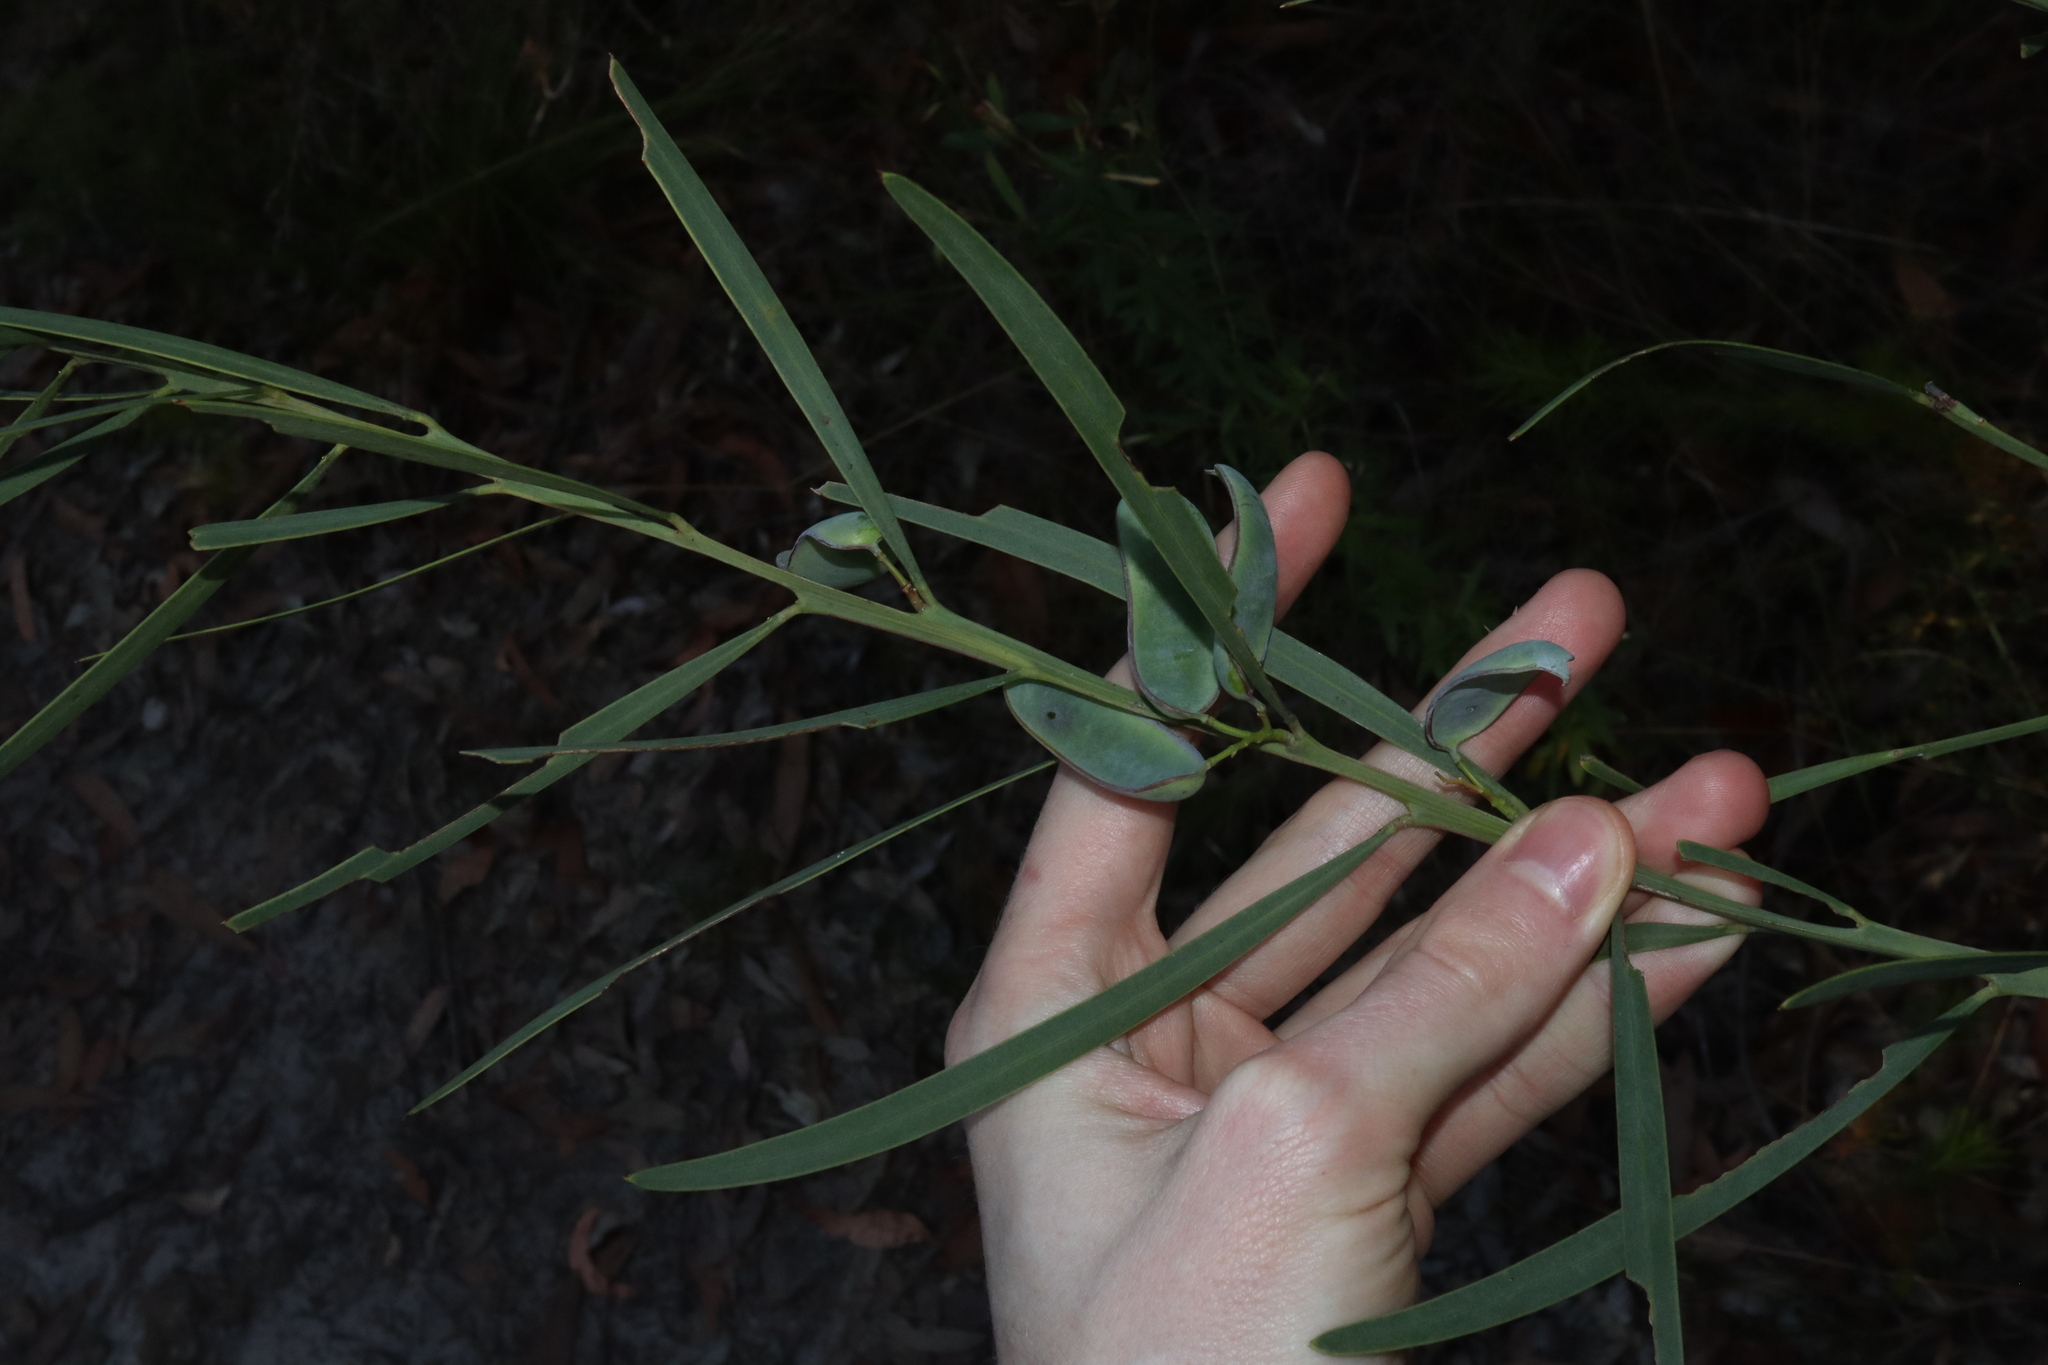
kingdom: Plantae
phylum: Tracheophyta
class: Magnoliopsida
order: Fabales
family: Fabaceae
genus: Acacia
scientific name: Acacia suaveolens
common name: Sweet acacia
